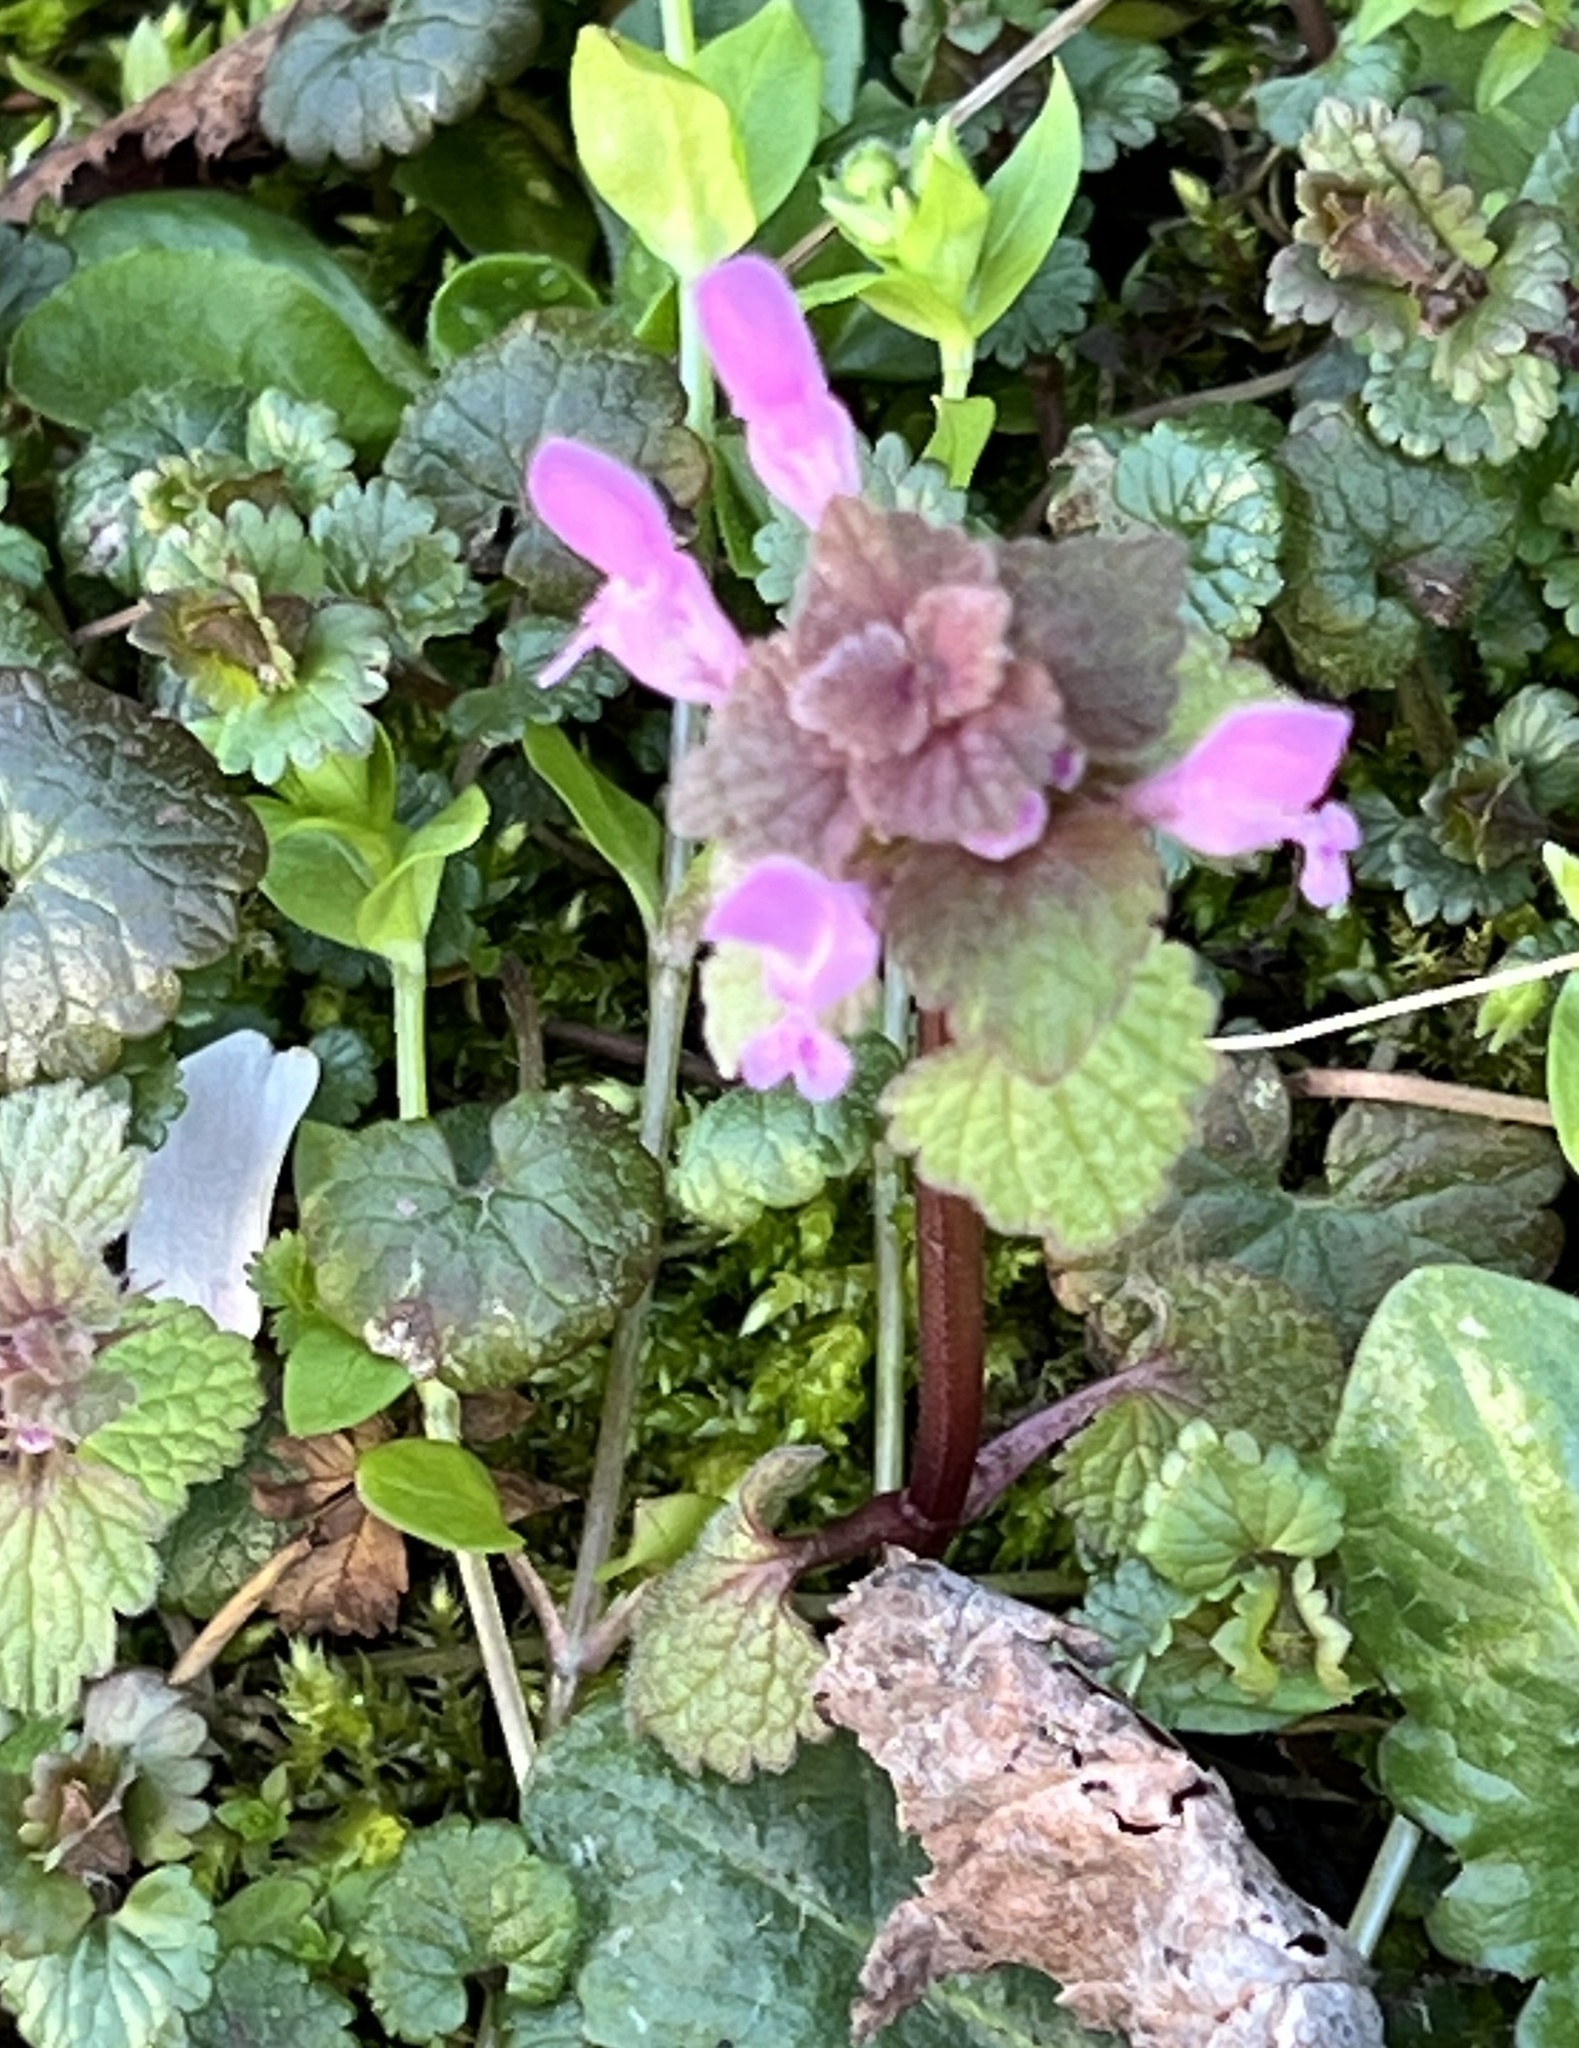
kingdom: Plantae
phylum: Tracheophyta
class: Magnoliopsida
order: Lamiales
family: Lamiaceae
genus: Lamium
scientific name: Lamium purpureum
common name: Red dead-nettle
